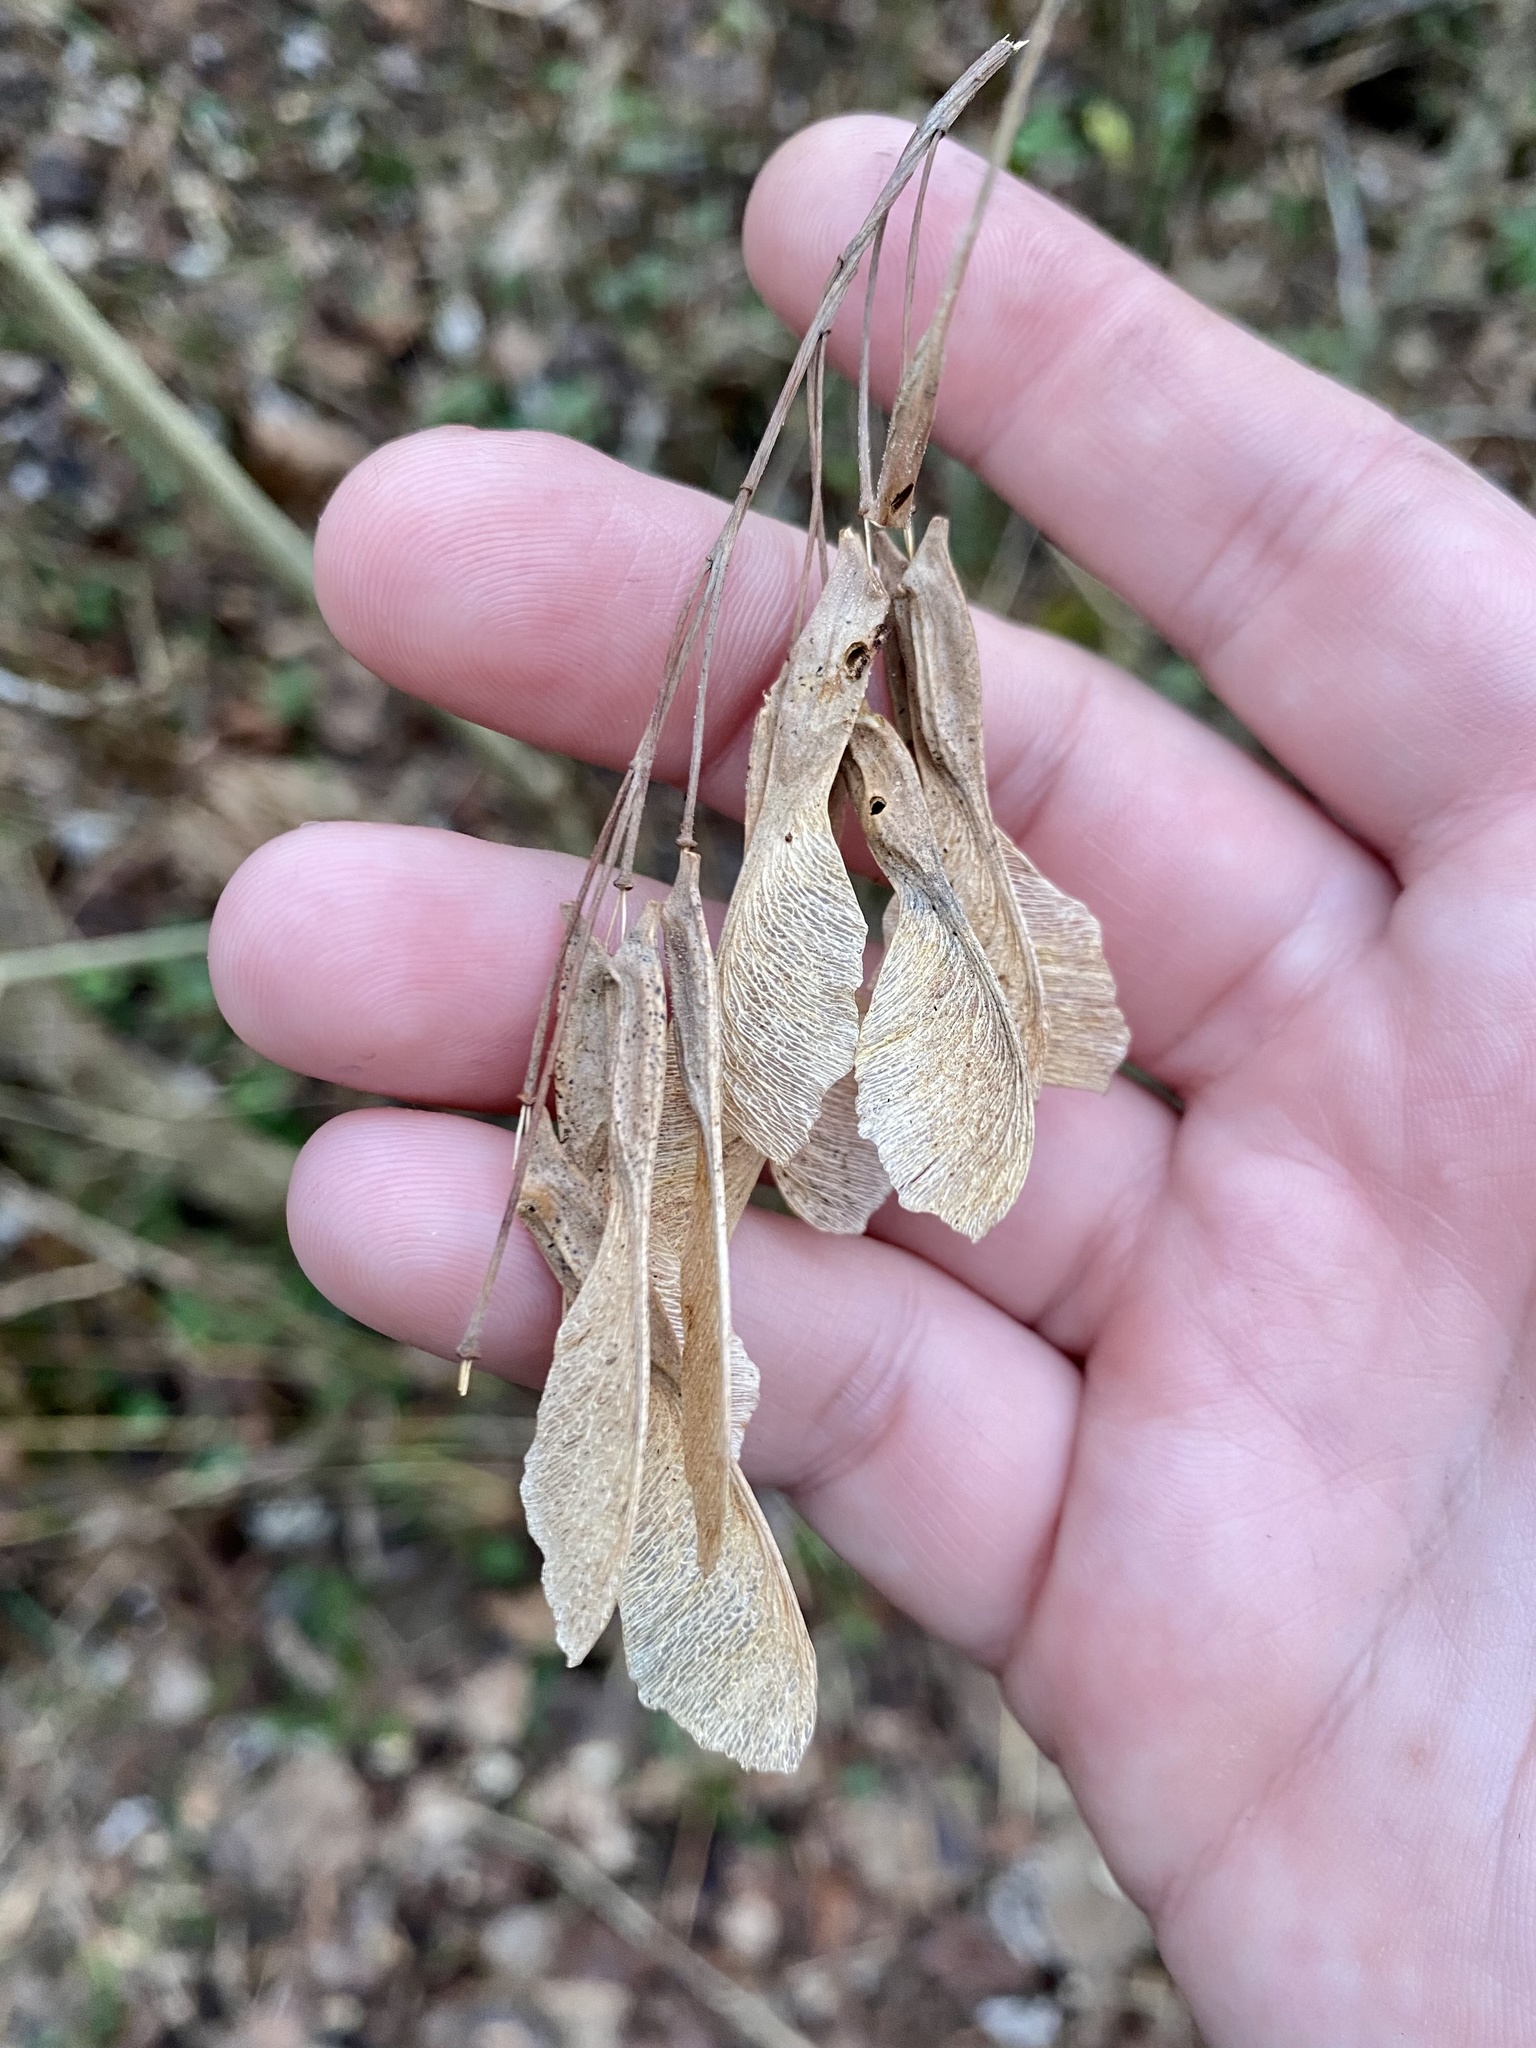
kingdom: Plantae
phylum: Tracheophyta
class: Magnoliopsida
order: Sapindales
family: Sapindaceae
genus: Acer
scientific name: Acer negundo
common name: Ashleaf maple
